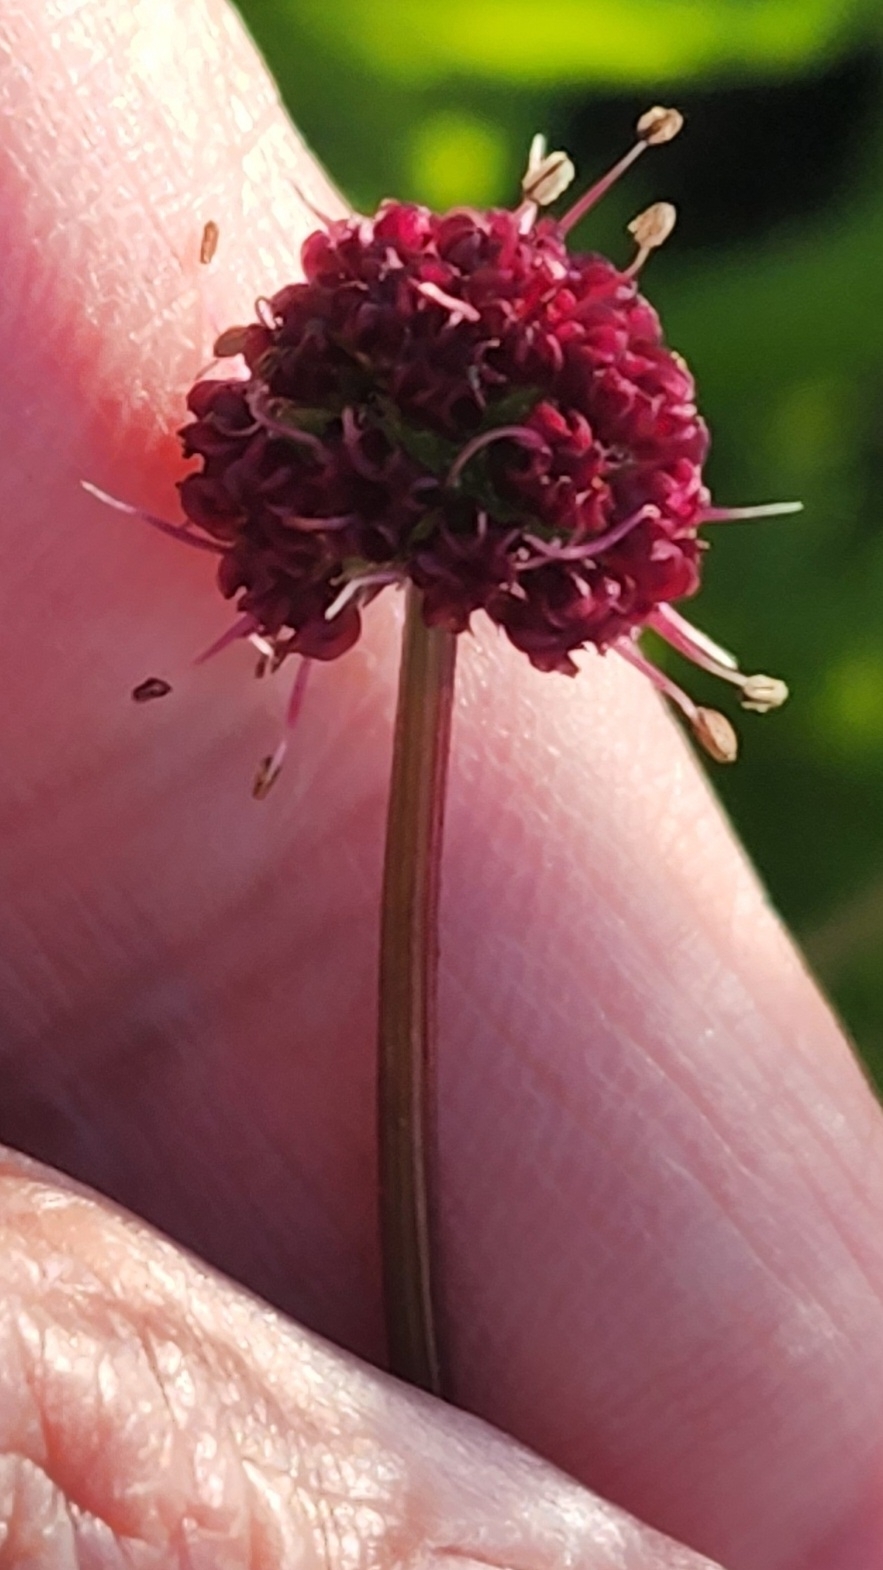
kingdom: Plantae
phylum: Tracheophyta
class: Magnoliopsida
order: Apiales
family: Apiaceae
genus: Sanicula
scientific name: Sanicula bipinnatifida
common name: Shoe-buttons
